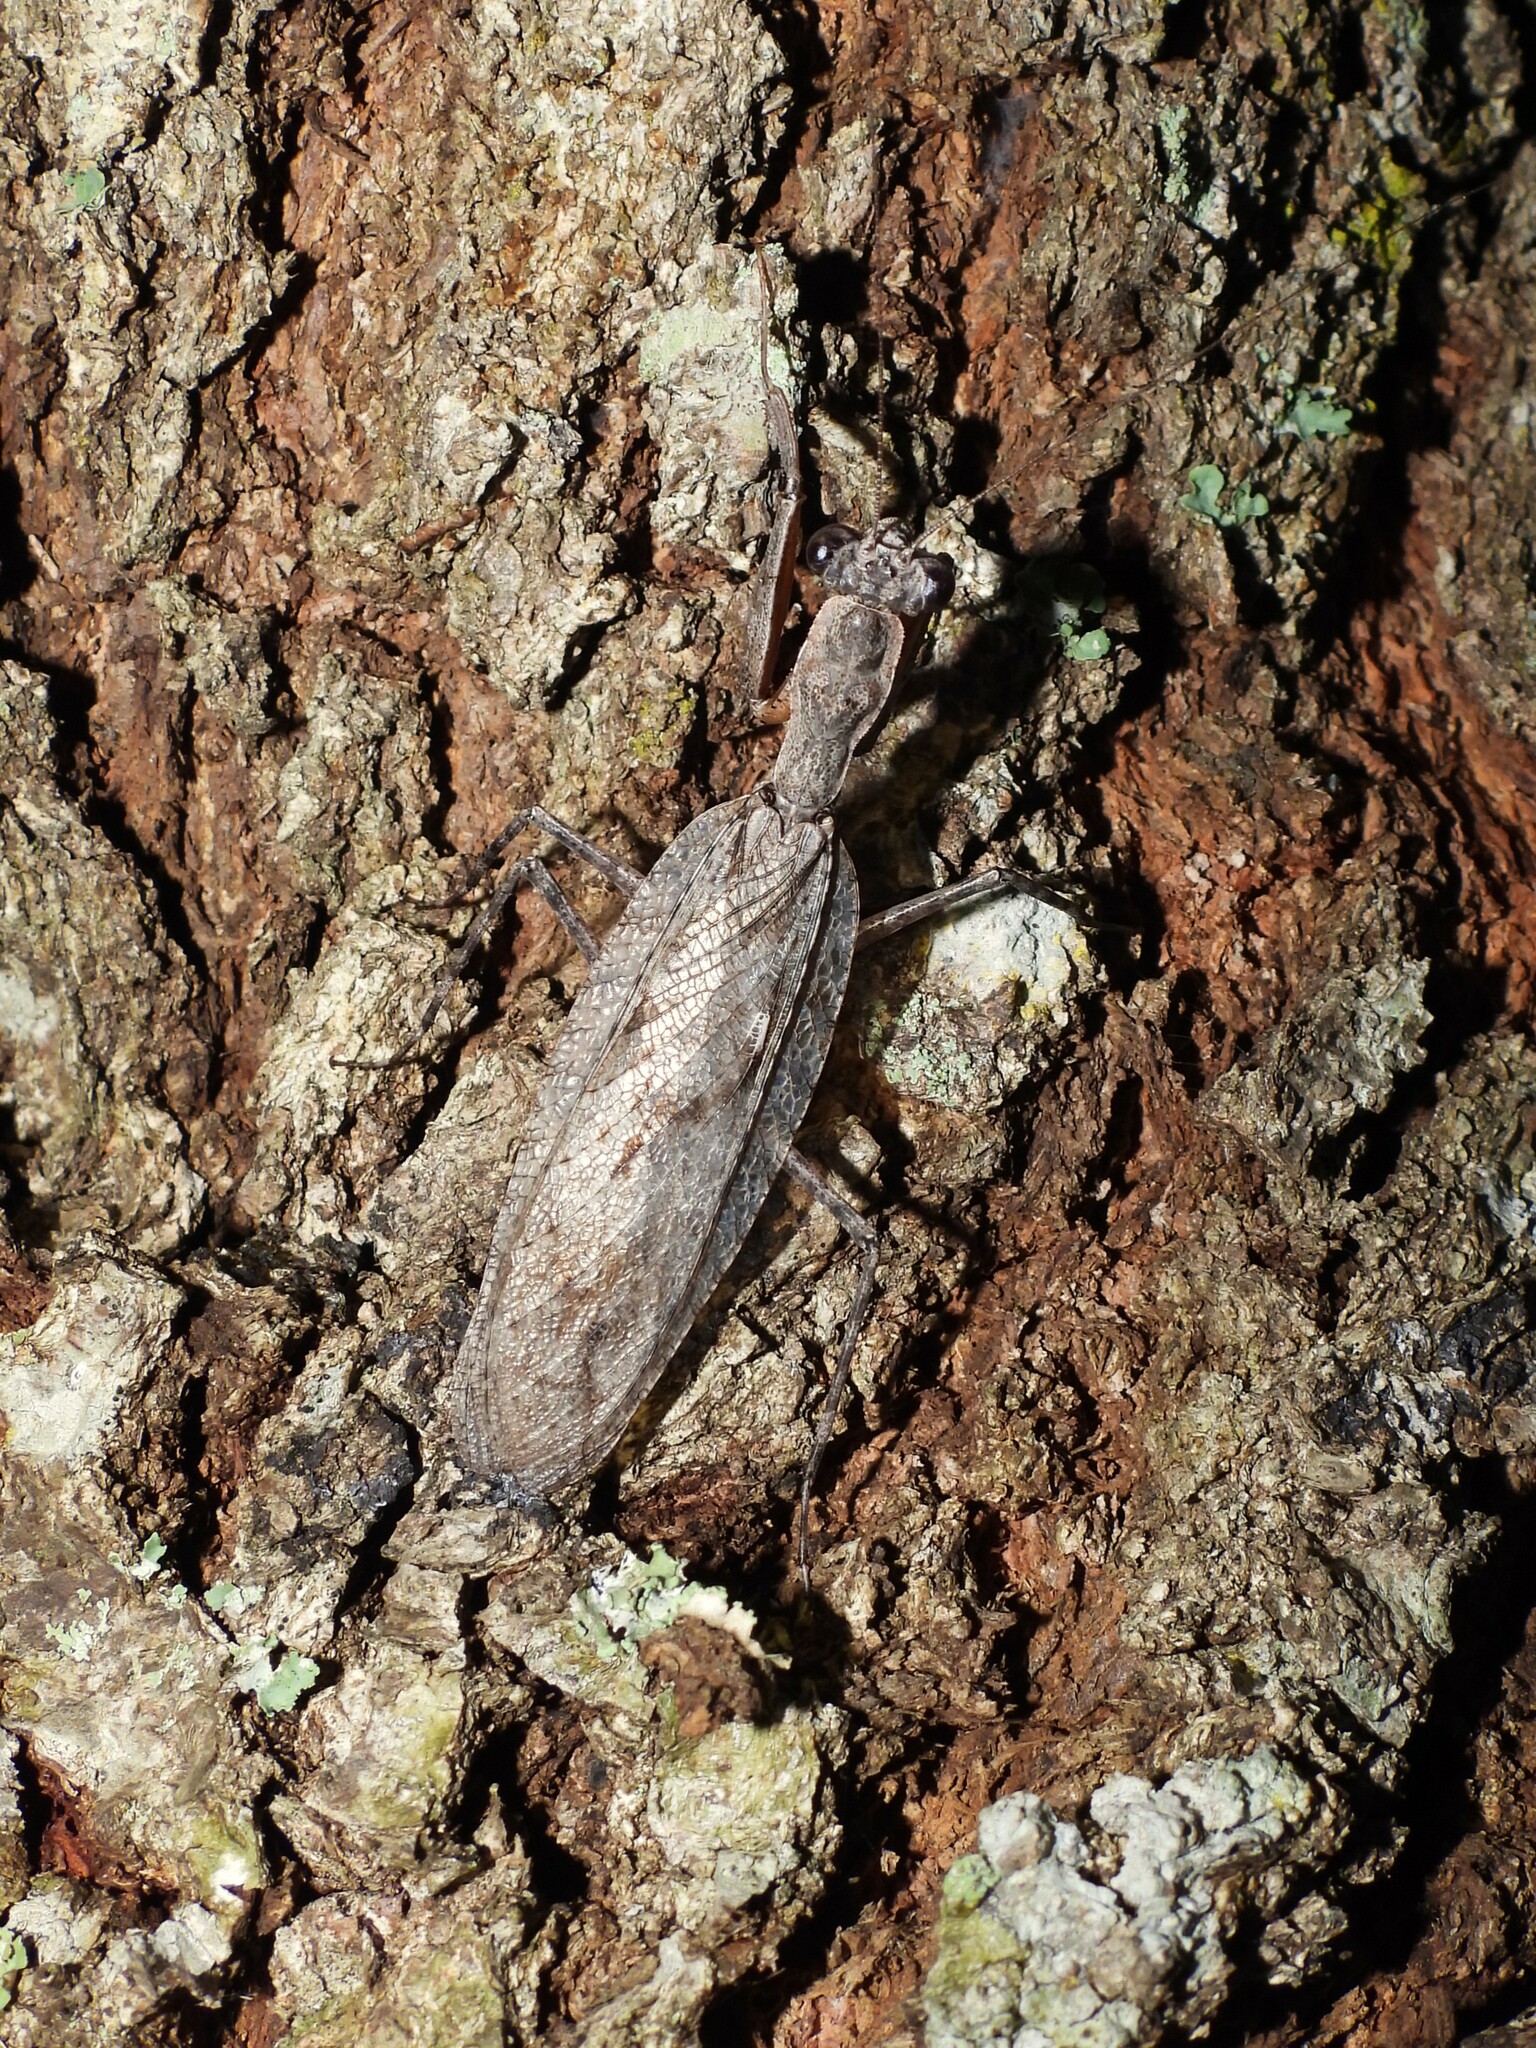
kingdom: Animalia
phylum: Arthropoda
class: Insecta
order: Mantodea
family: Epaphroditidae
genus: Gonatista
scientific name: Gonatista grisea
